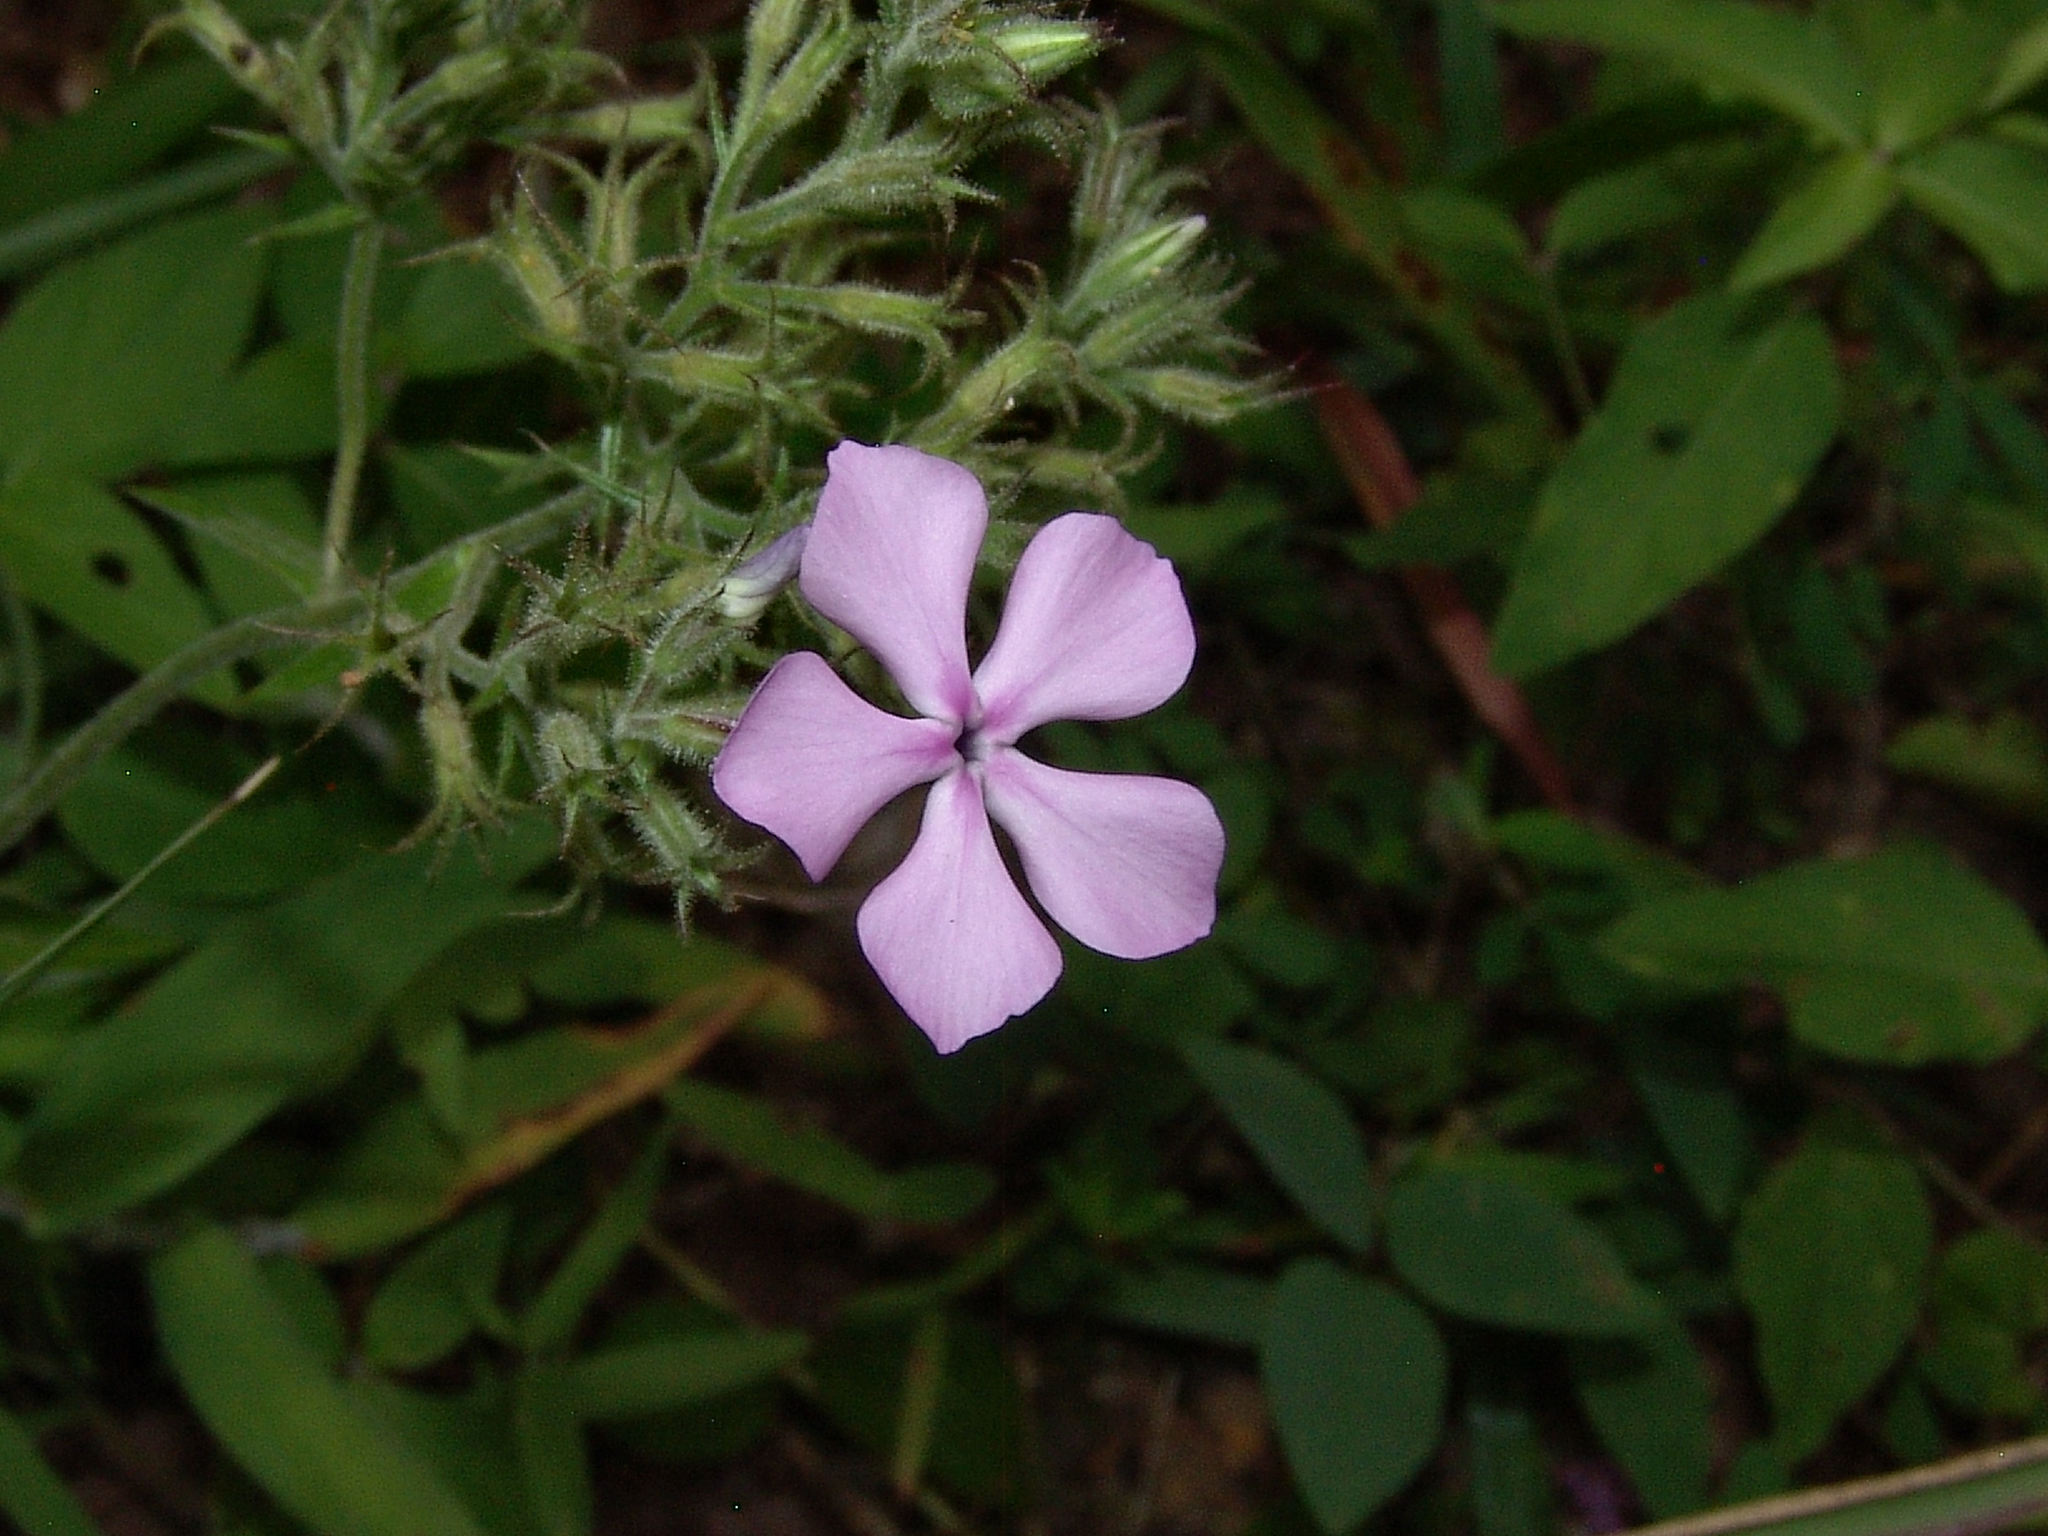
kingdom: Plantae
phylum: Tracheophyta
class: Magnoliopsida
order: Ericales
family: Polemoniaceae
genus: Phlox
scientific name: Phlox pilosa
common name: Prairie phlox
